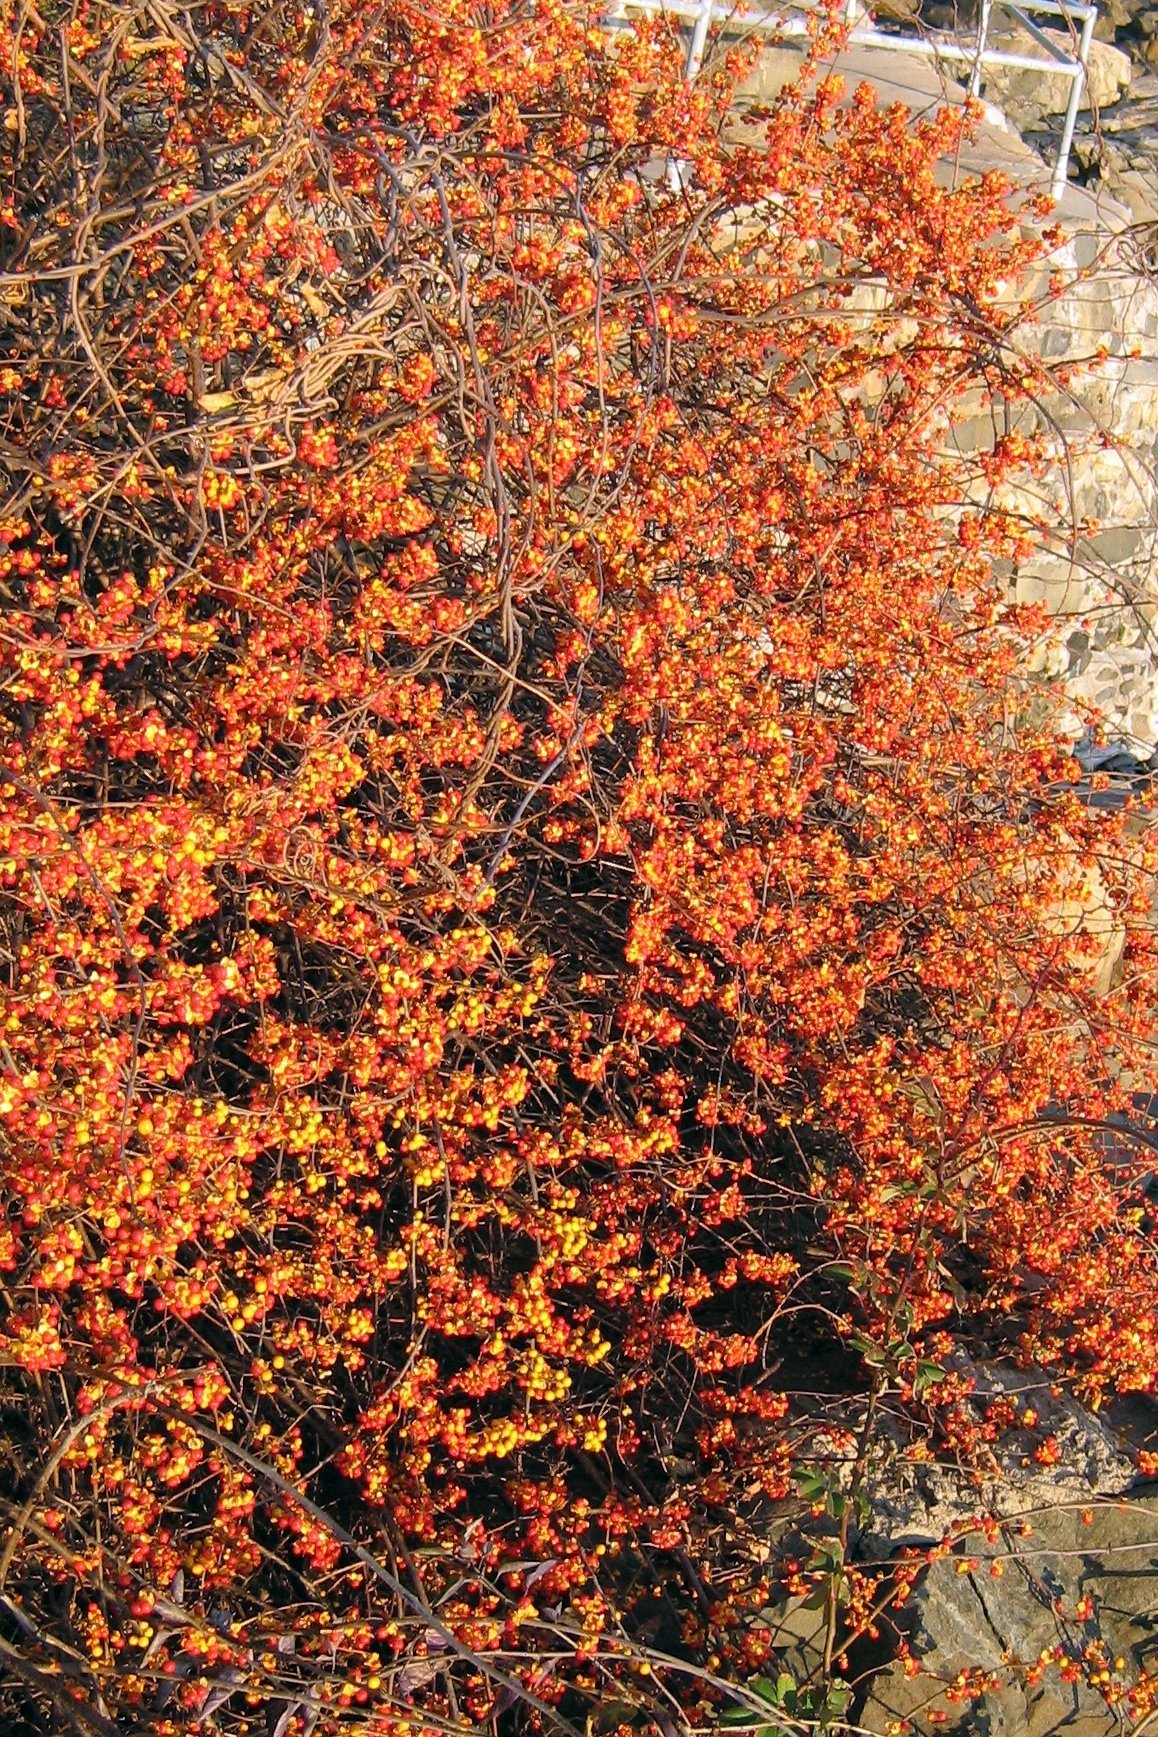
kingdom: Plantae
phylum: Tracheophyta
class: Magnoliopsida
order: Celastrales
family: Celastraceae
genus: Celastrus
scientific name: Celastrus orbiculatus
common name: Oriental bittersweet
